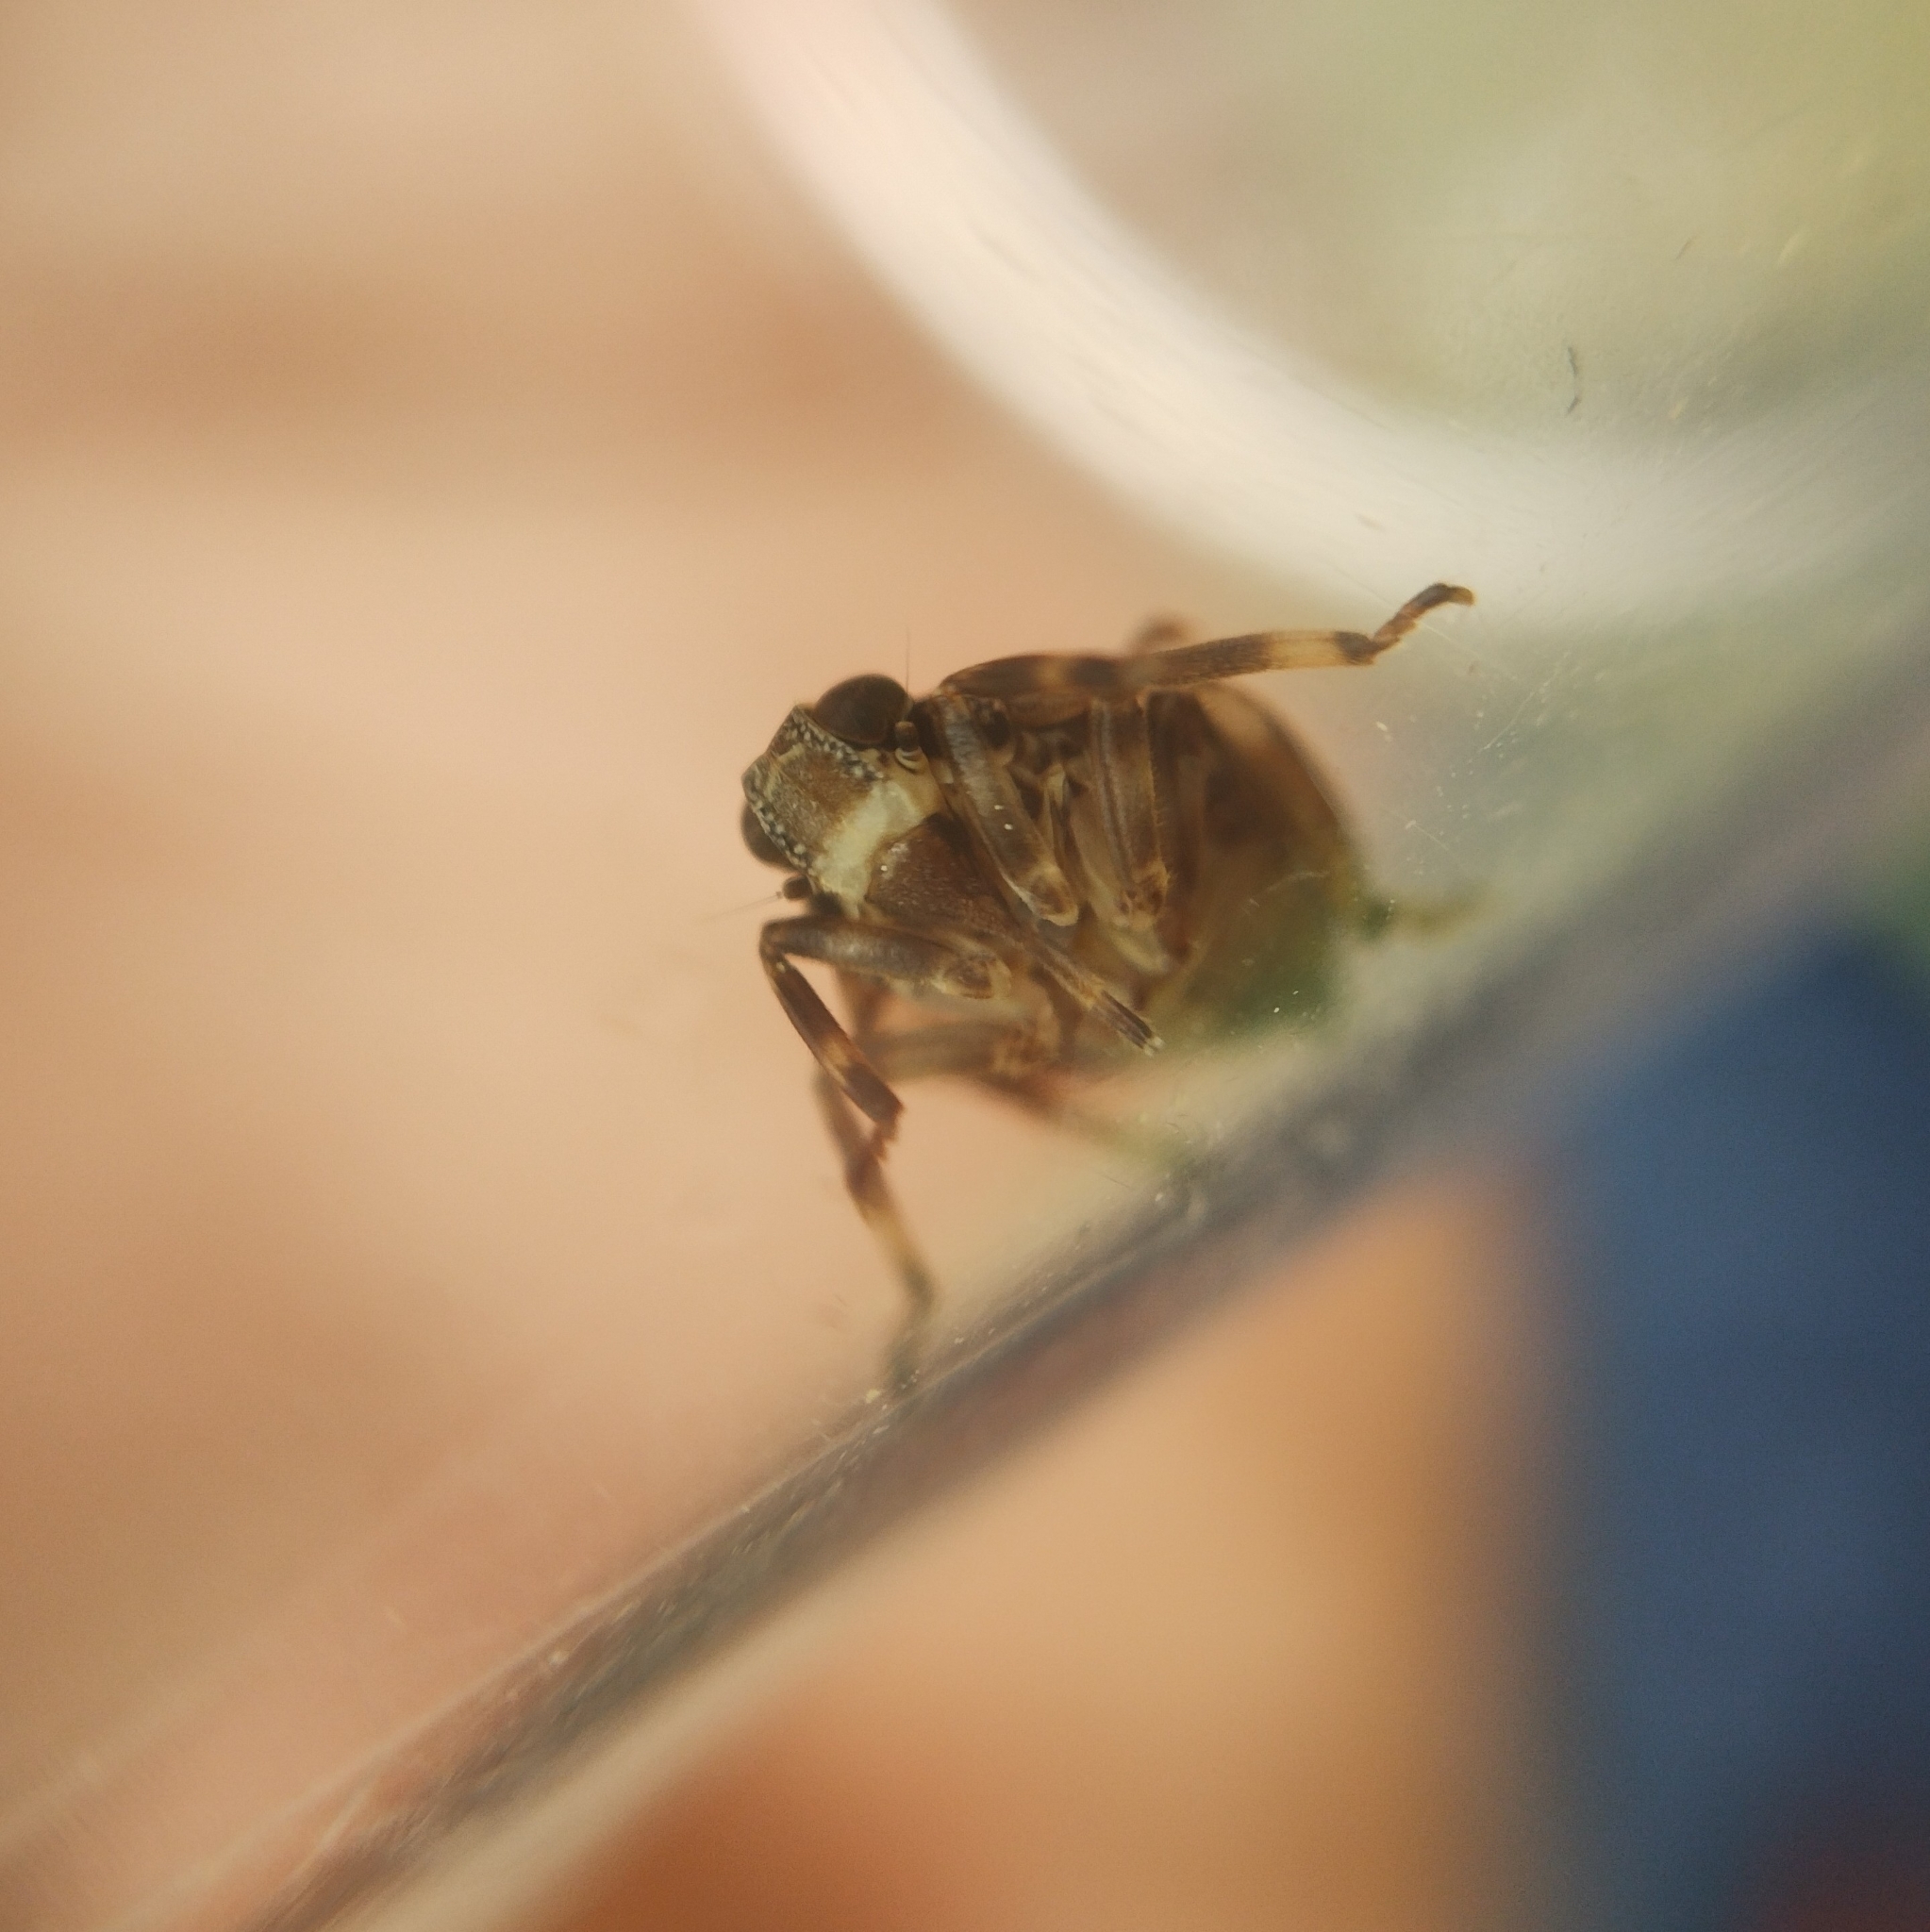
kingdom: Animalia
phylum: Arthropoda
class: Insecta
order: Hemiptera
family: Issidae
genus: Issus
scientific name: Issus muscaeformis
